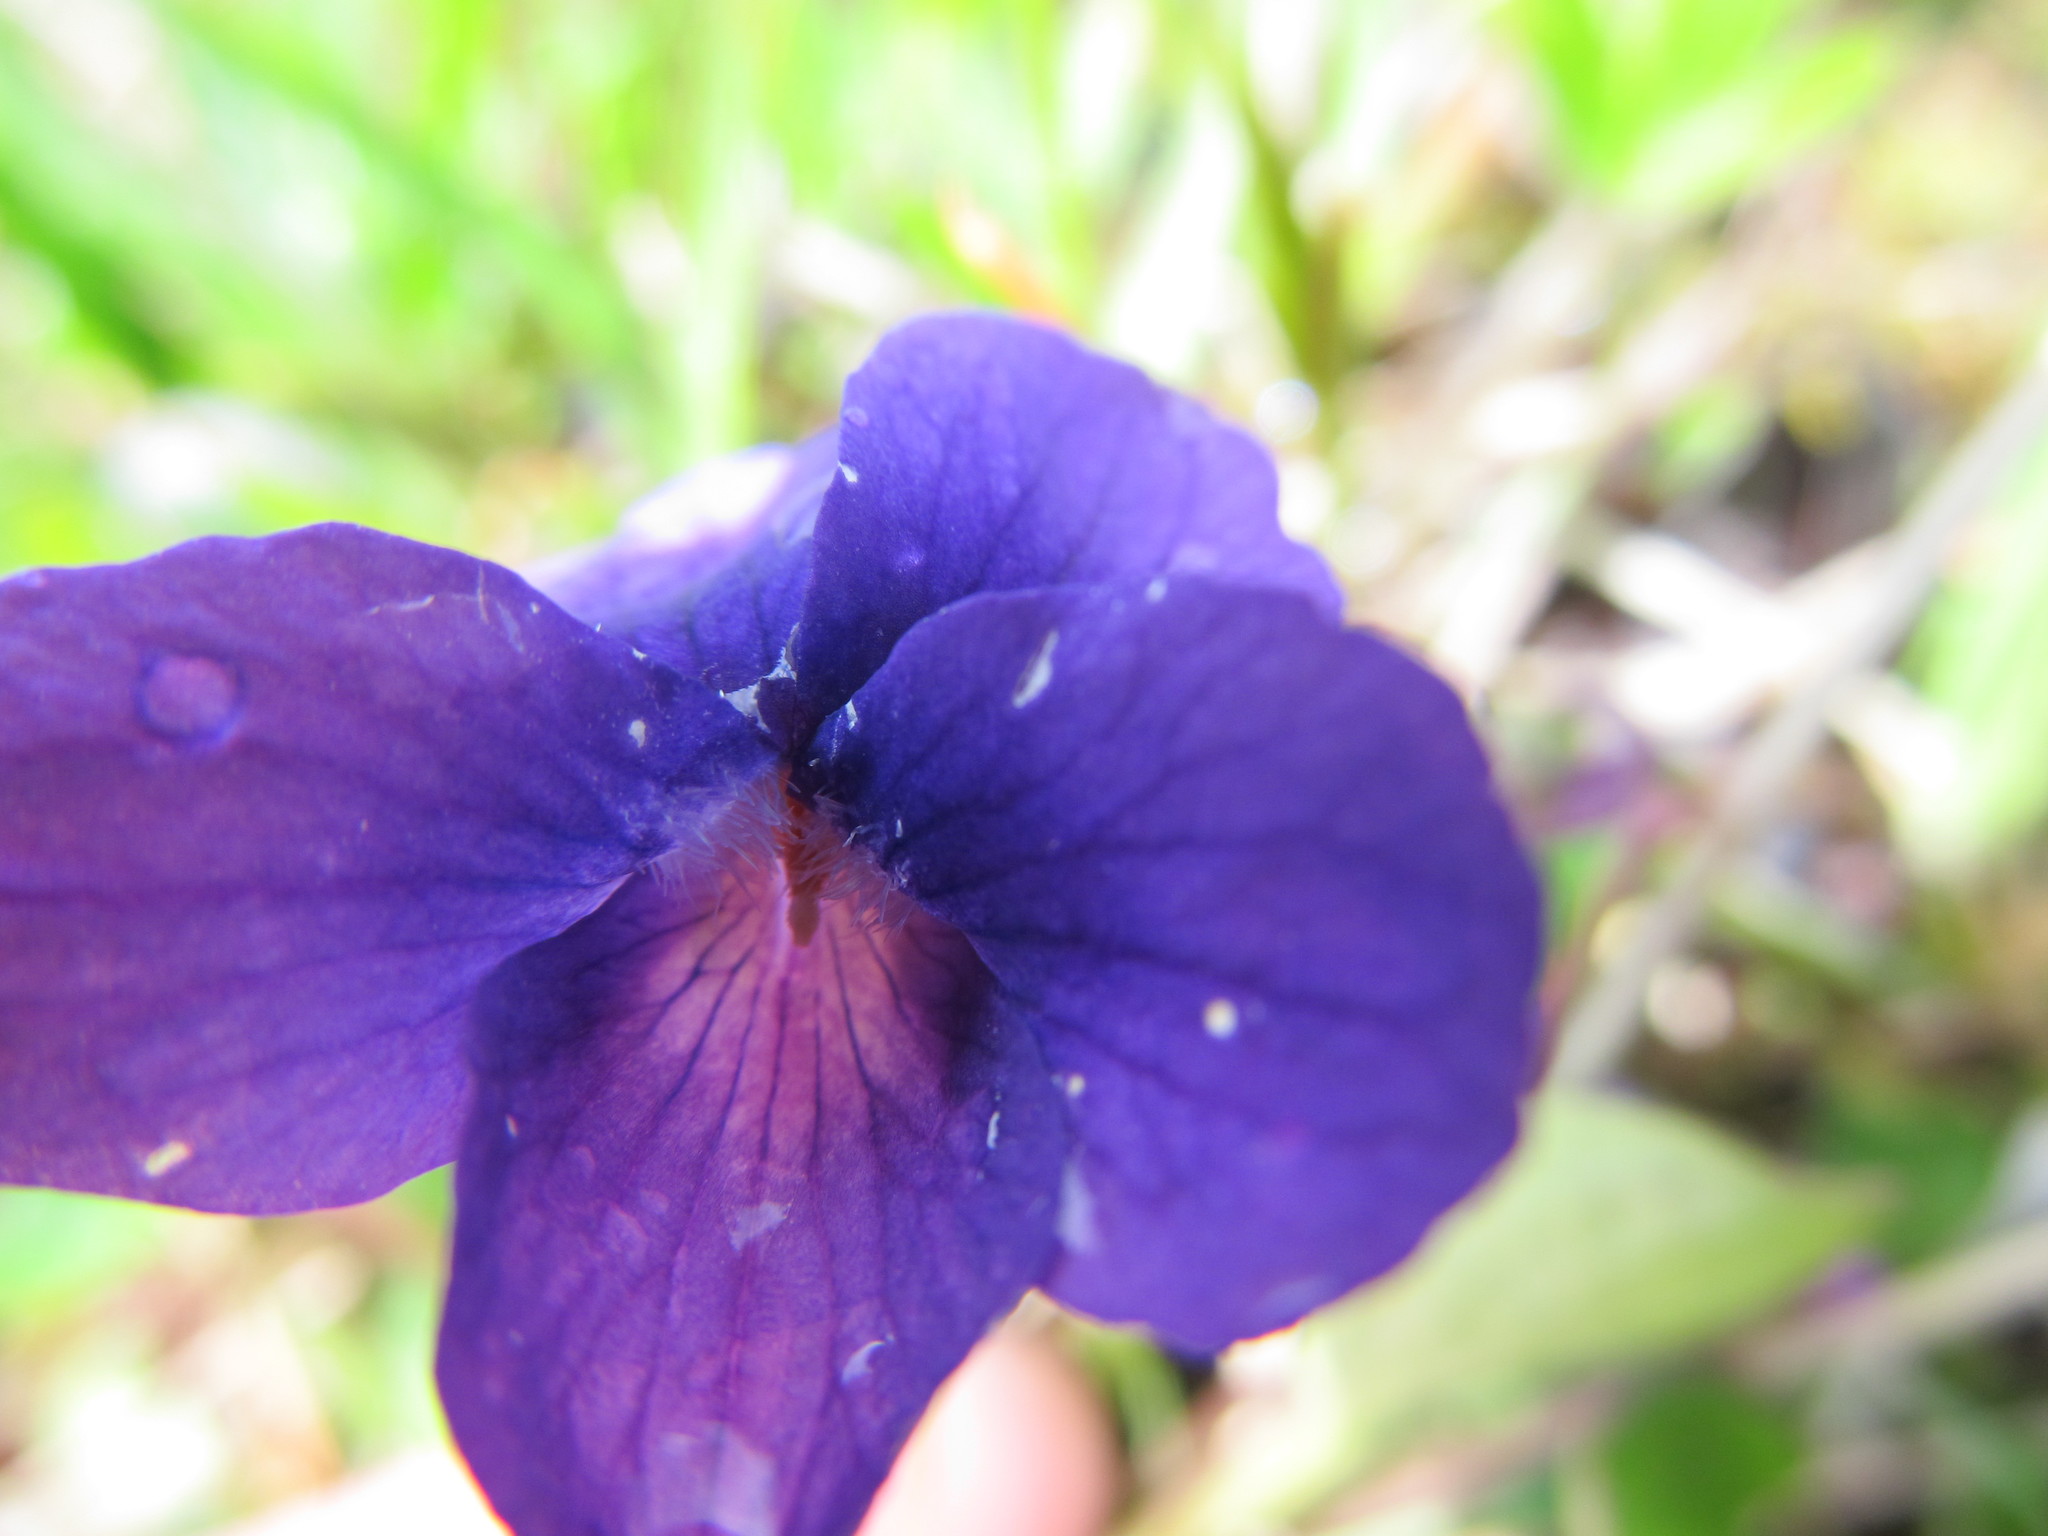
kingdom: Plantae
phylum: Tracheophyta
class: Magnoliopsida
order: Malpighiales
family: Violaceae
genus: Viola
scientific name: Viola adunca
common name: Sand violet
